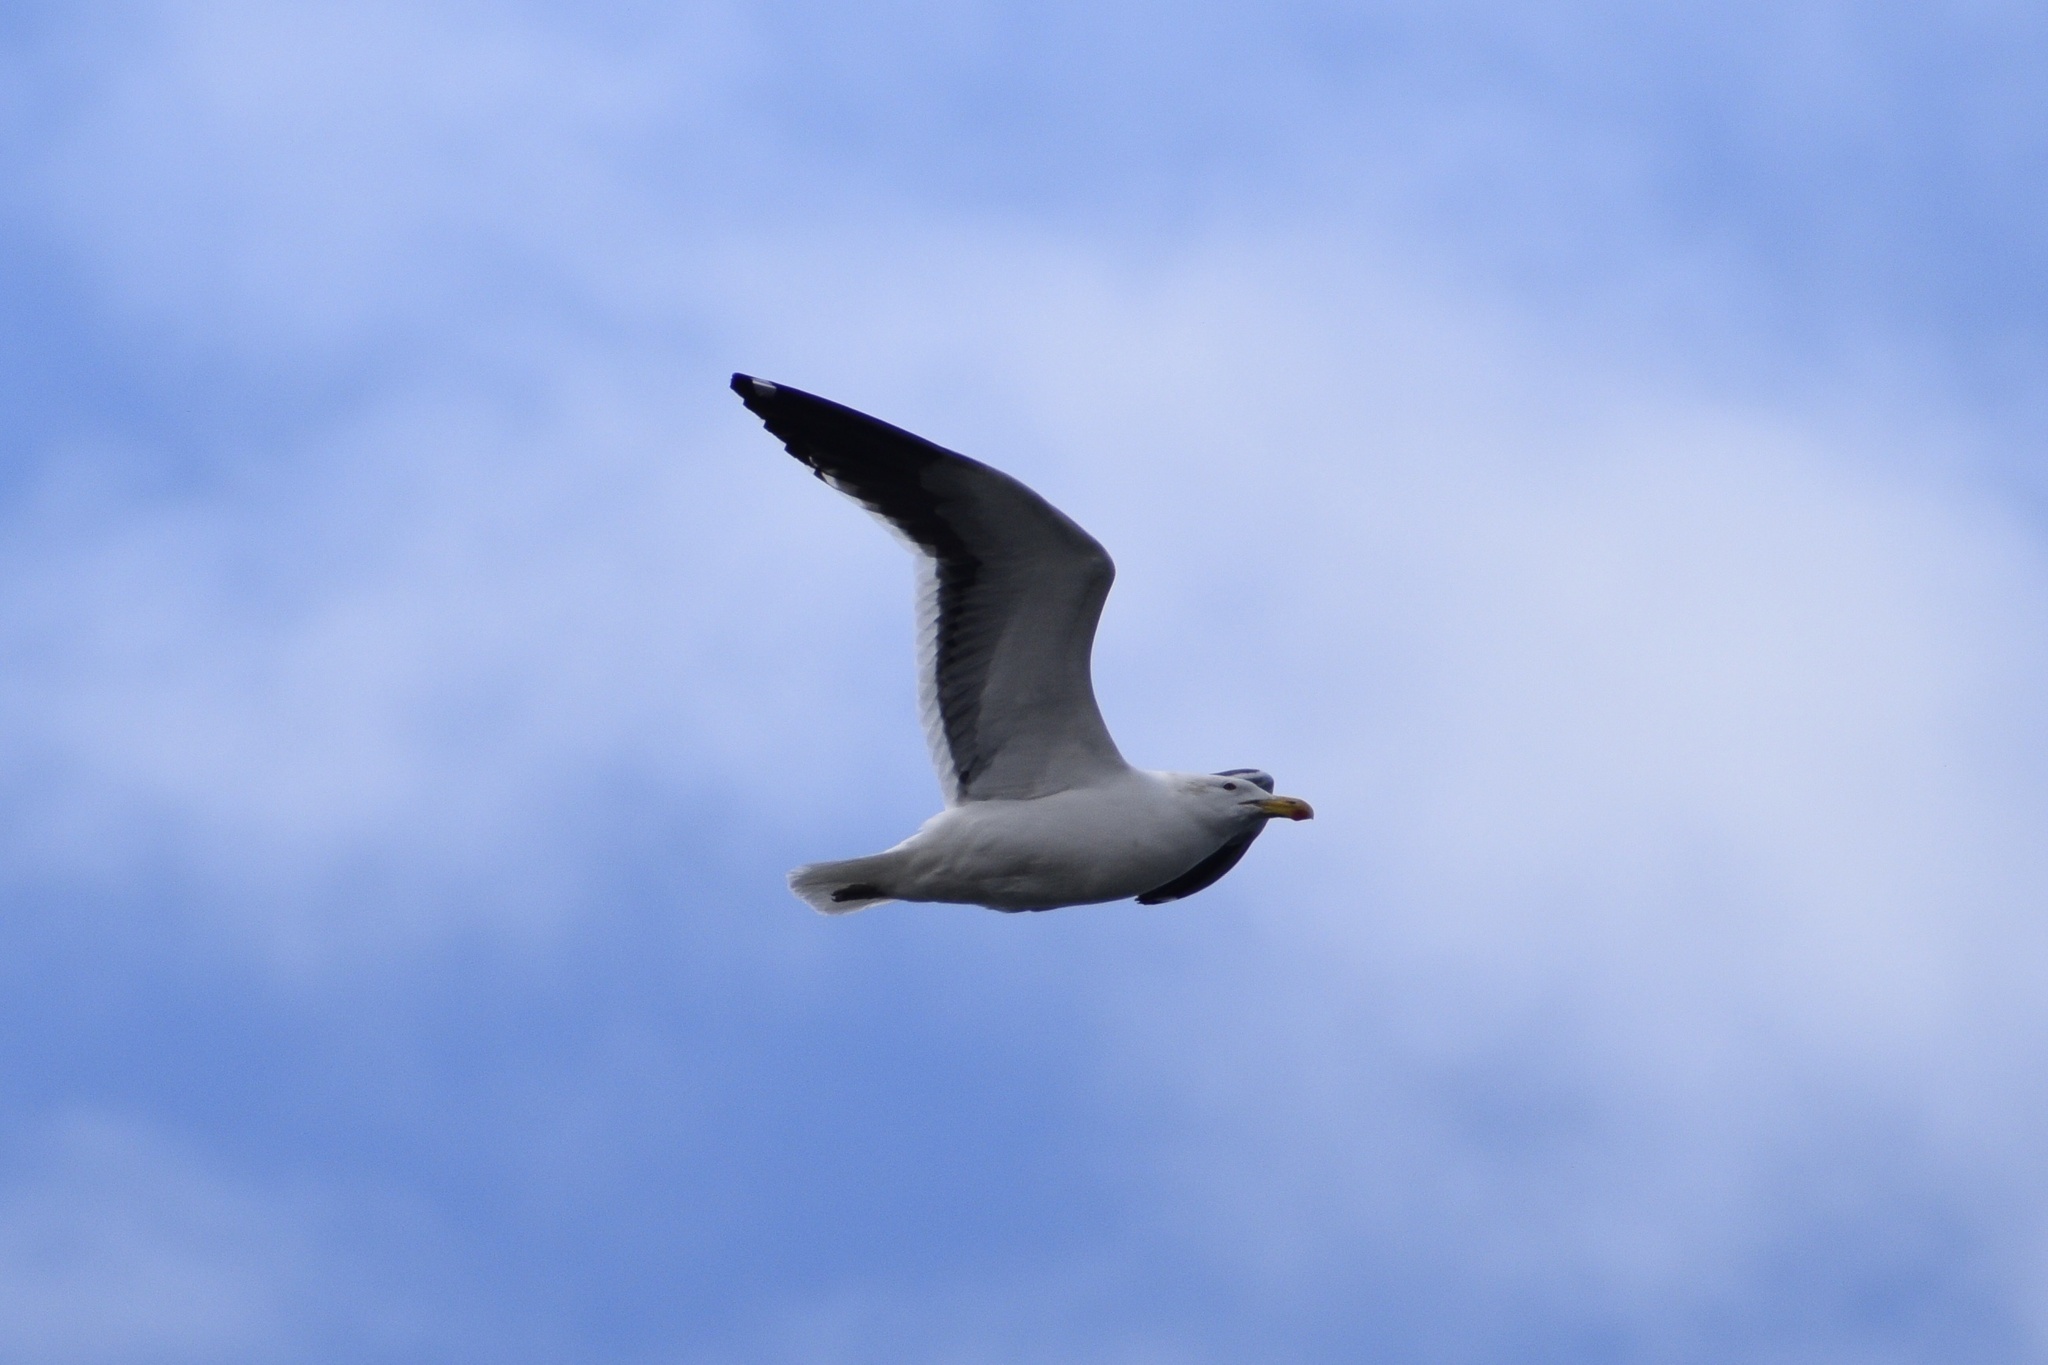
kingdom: Animalia
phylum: Chordata
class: Aves
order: Charadriiformes
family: Laridae
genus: Larus
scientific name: Larus dominicanus
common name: Kelp gull
